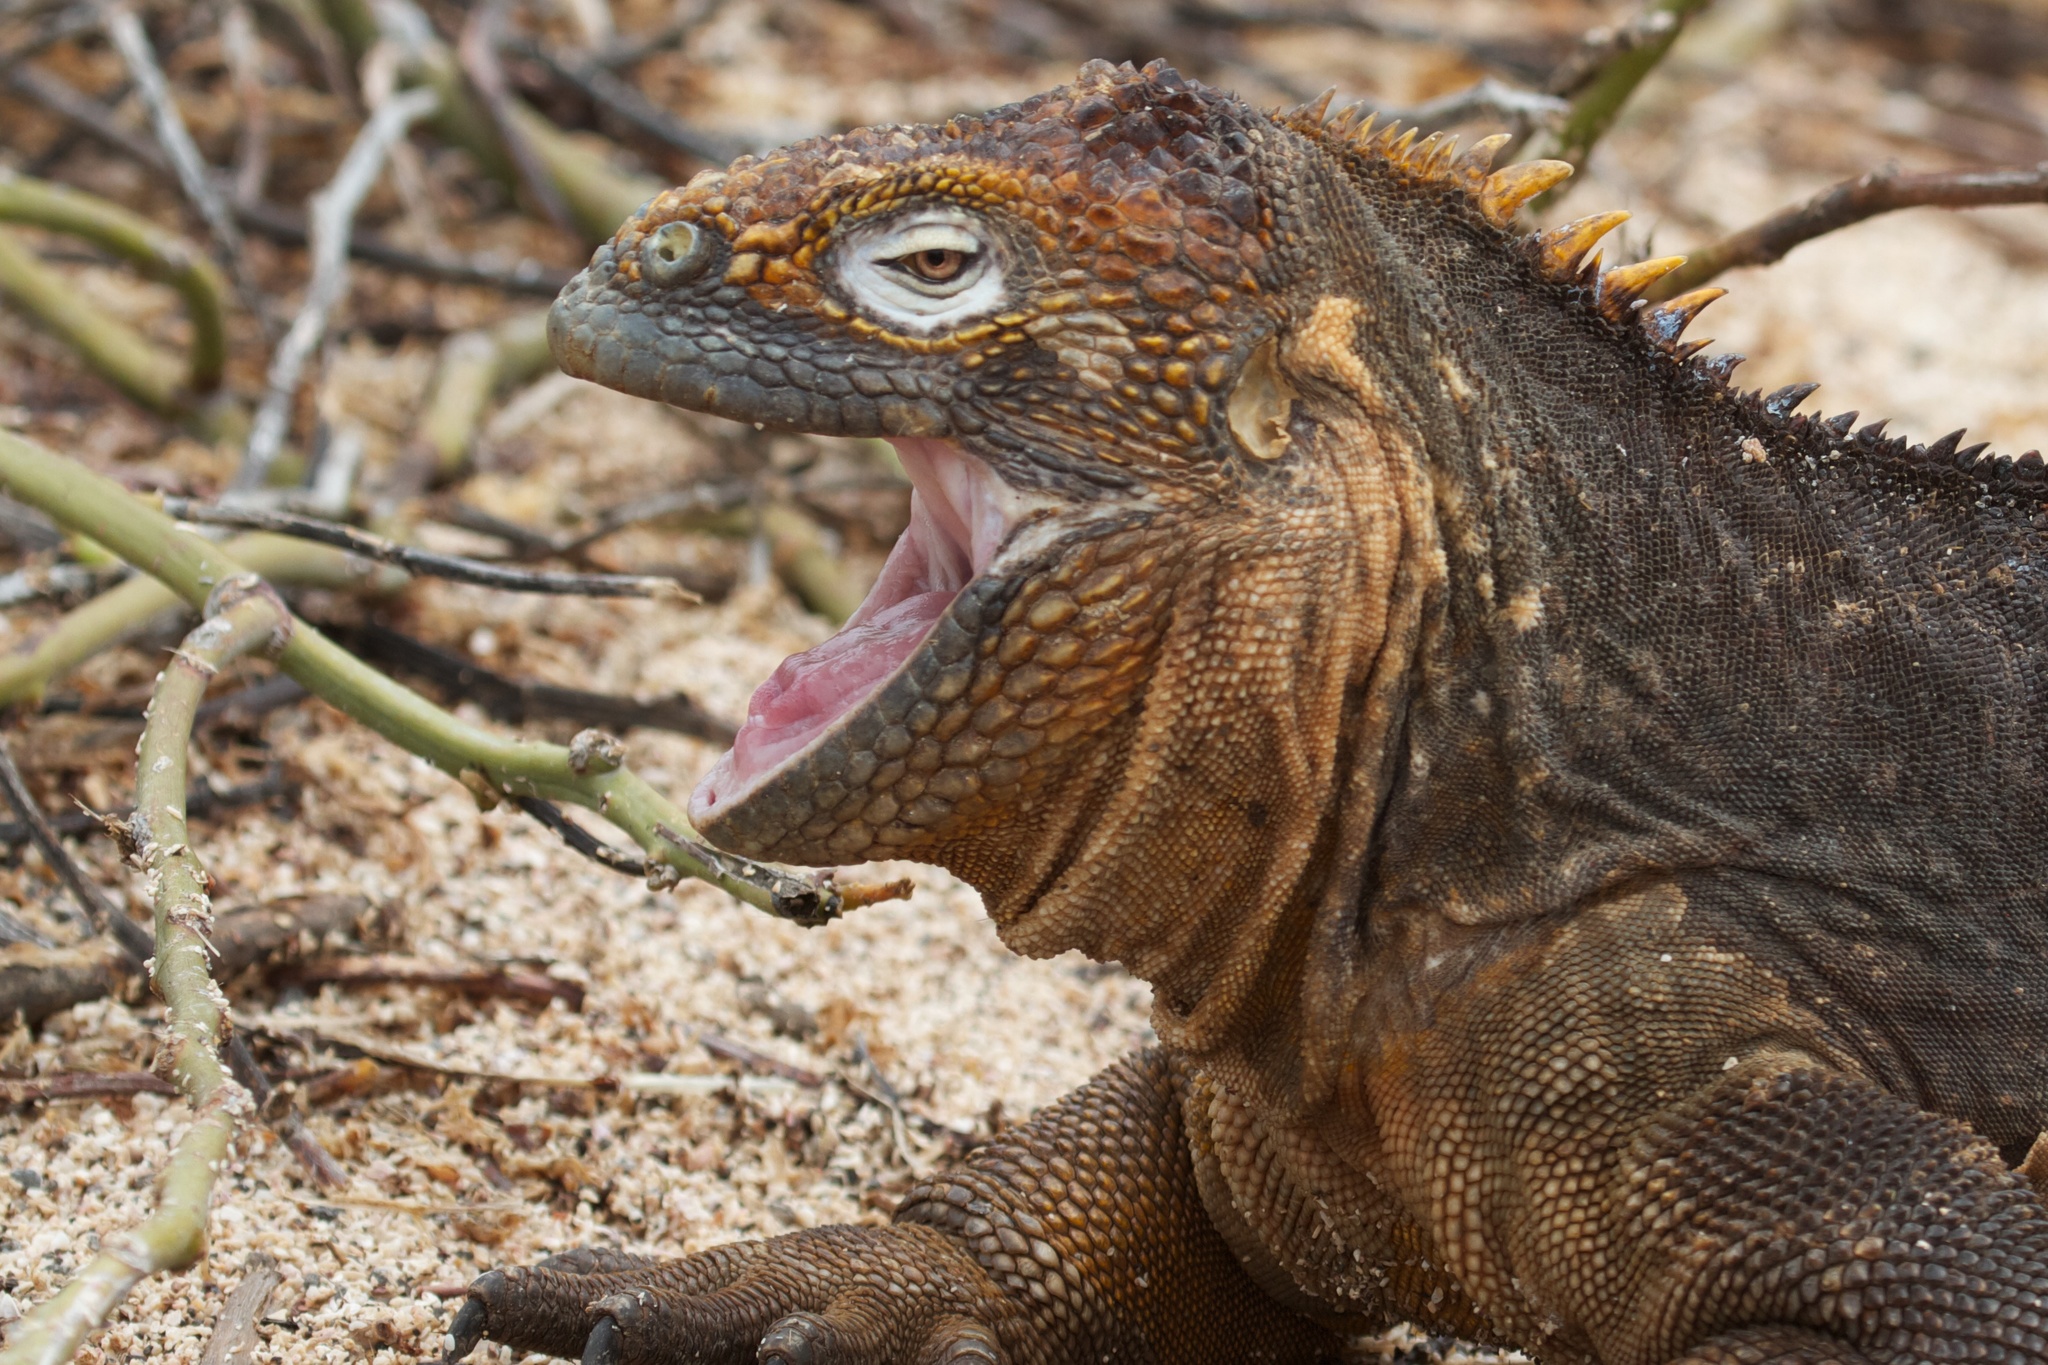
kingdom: Animalia
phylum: Chordata
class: Squamata
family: Iguanidae
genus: Conolophus
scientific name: Conolophus subcristatus
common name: Galapagos land iguana
